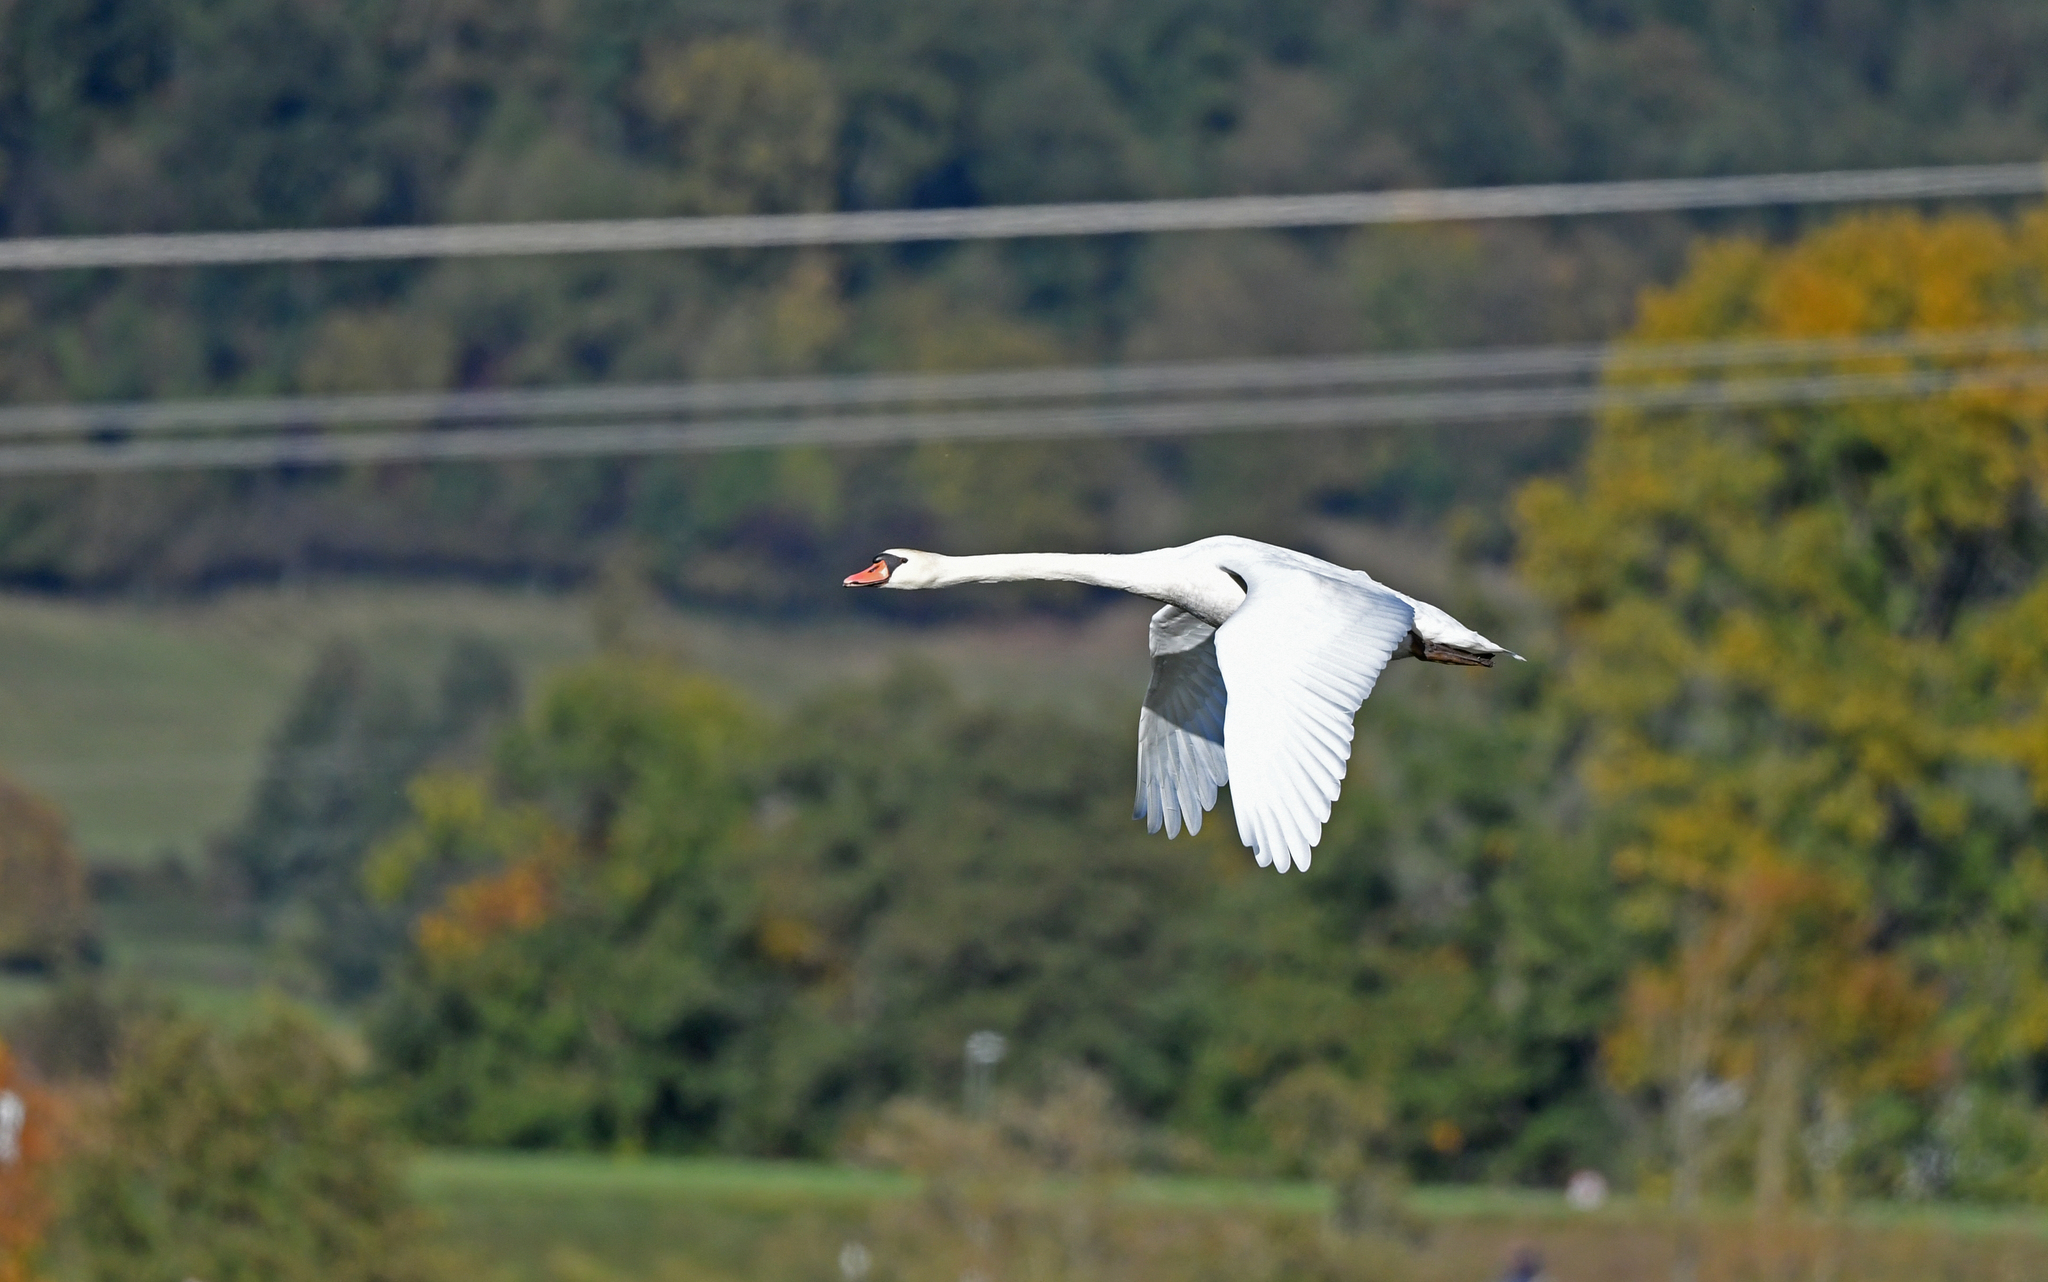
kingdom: Animalia
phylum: Chordata
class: Aves
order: Anseriformes
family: Anatidae
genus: Cygnus
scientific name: Cygnus olor
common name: Mute swan
